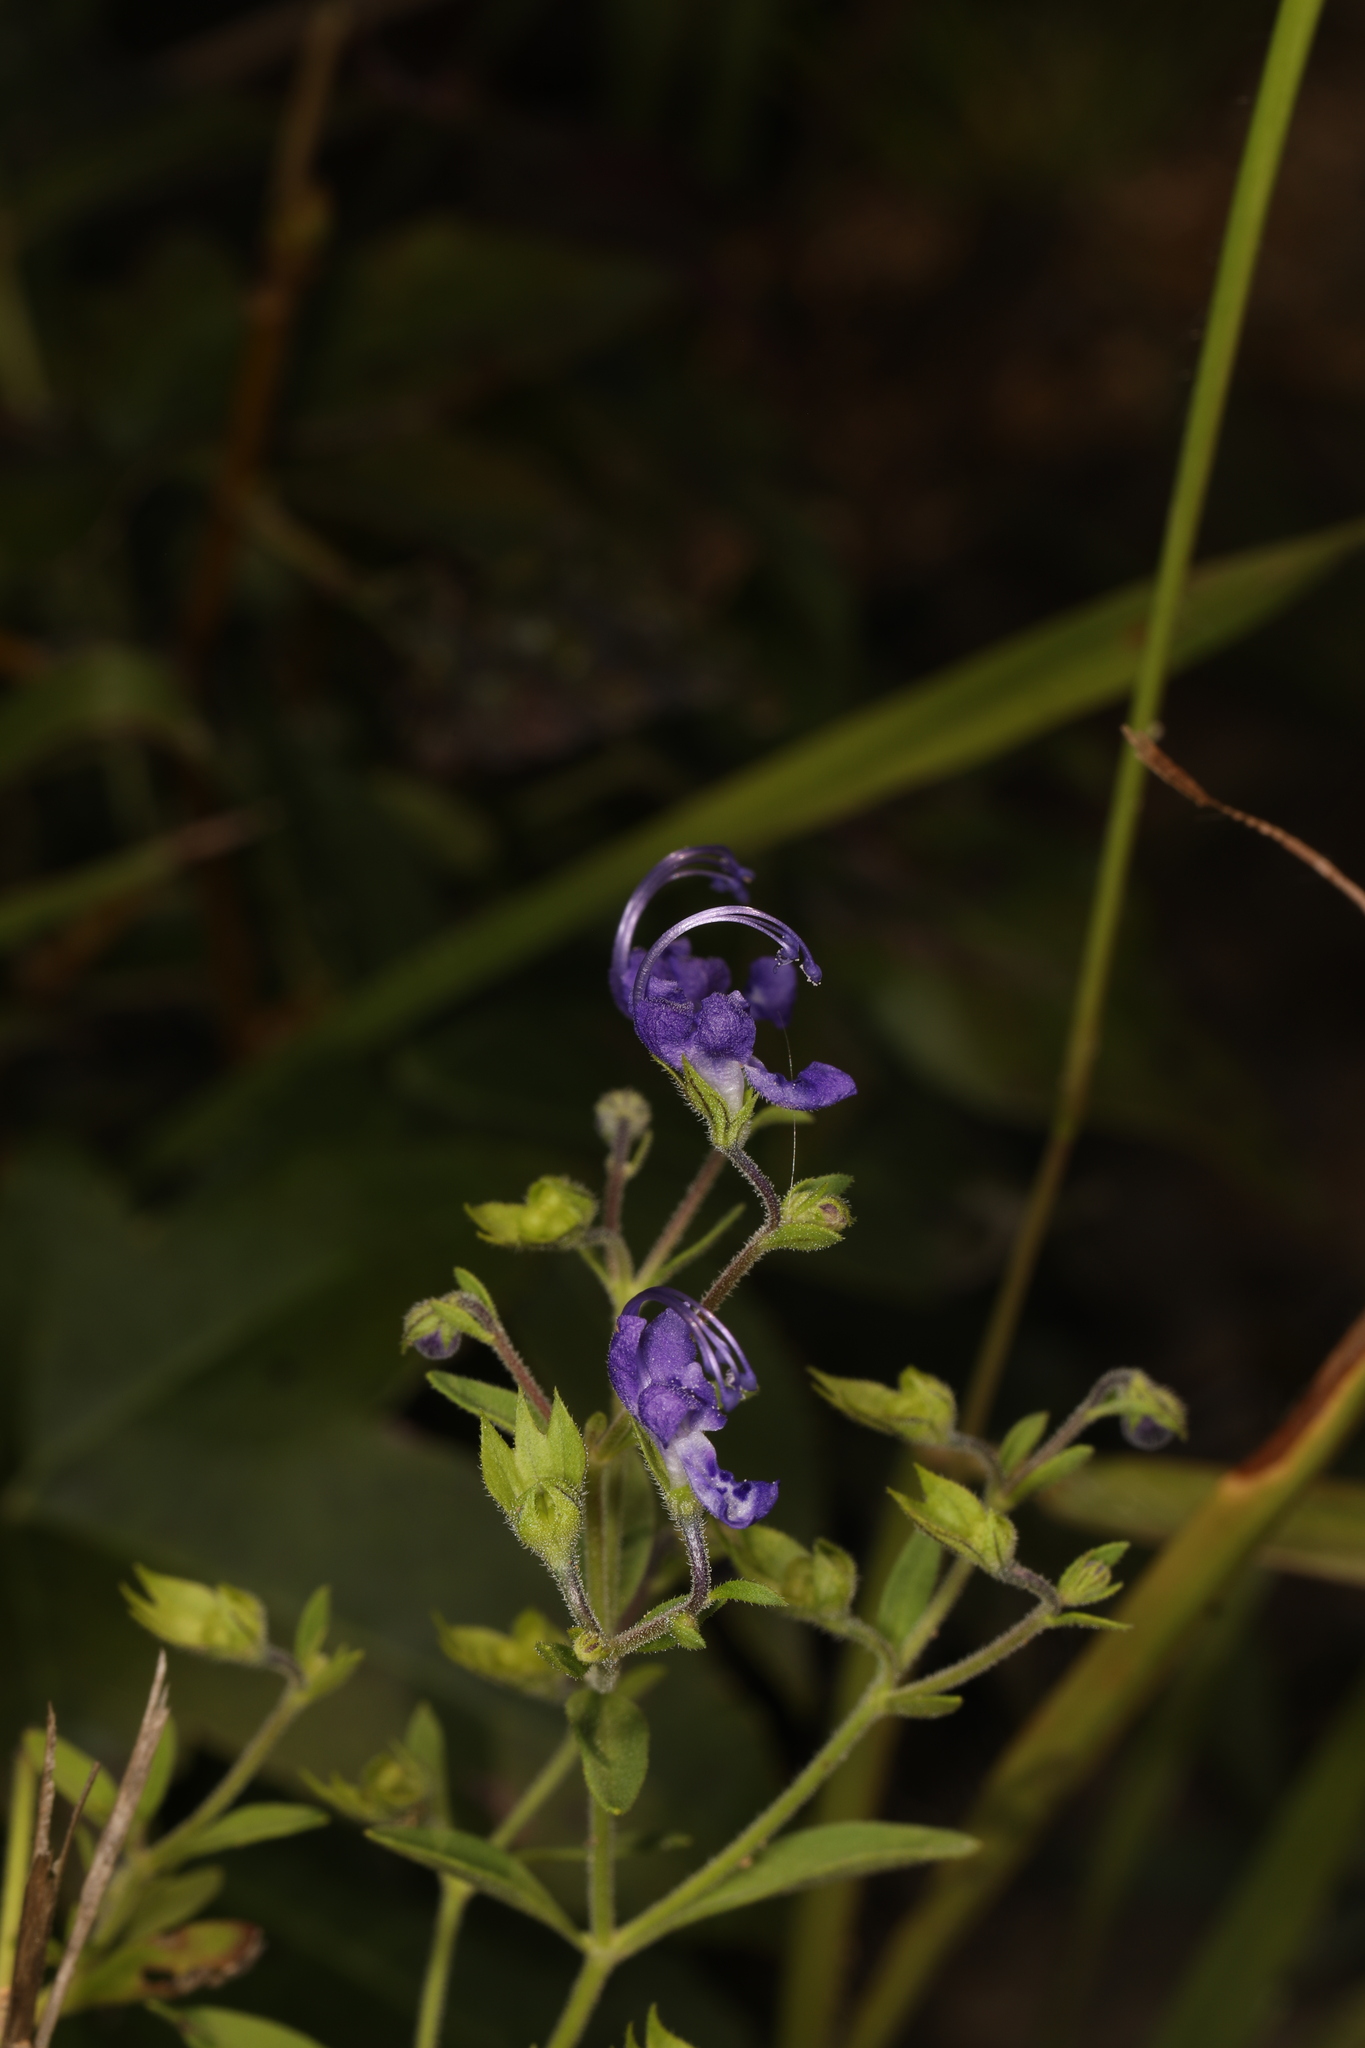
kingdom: Plantae
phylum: Tracheophyta
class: Magnoliopsida
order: Lamiales
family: Lamiaceae
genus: Trichostema
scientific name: Trichostema dichotomum
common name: Bastard pennyroyal
